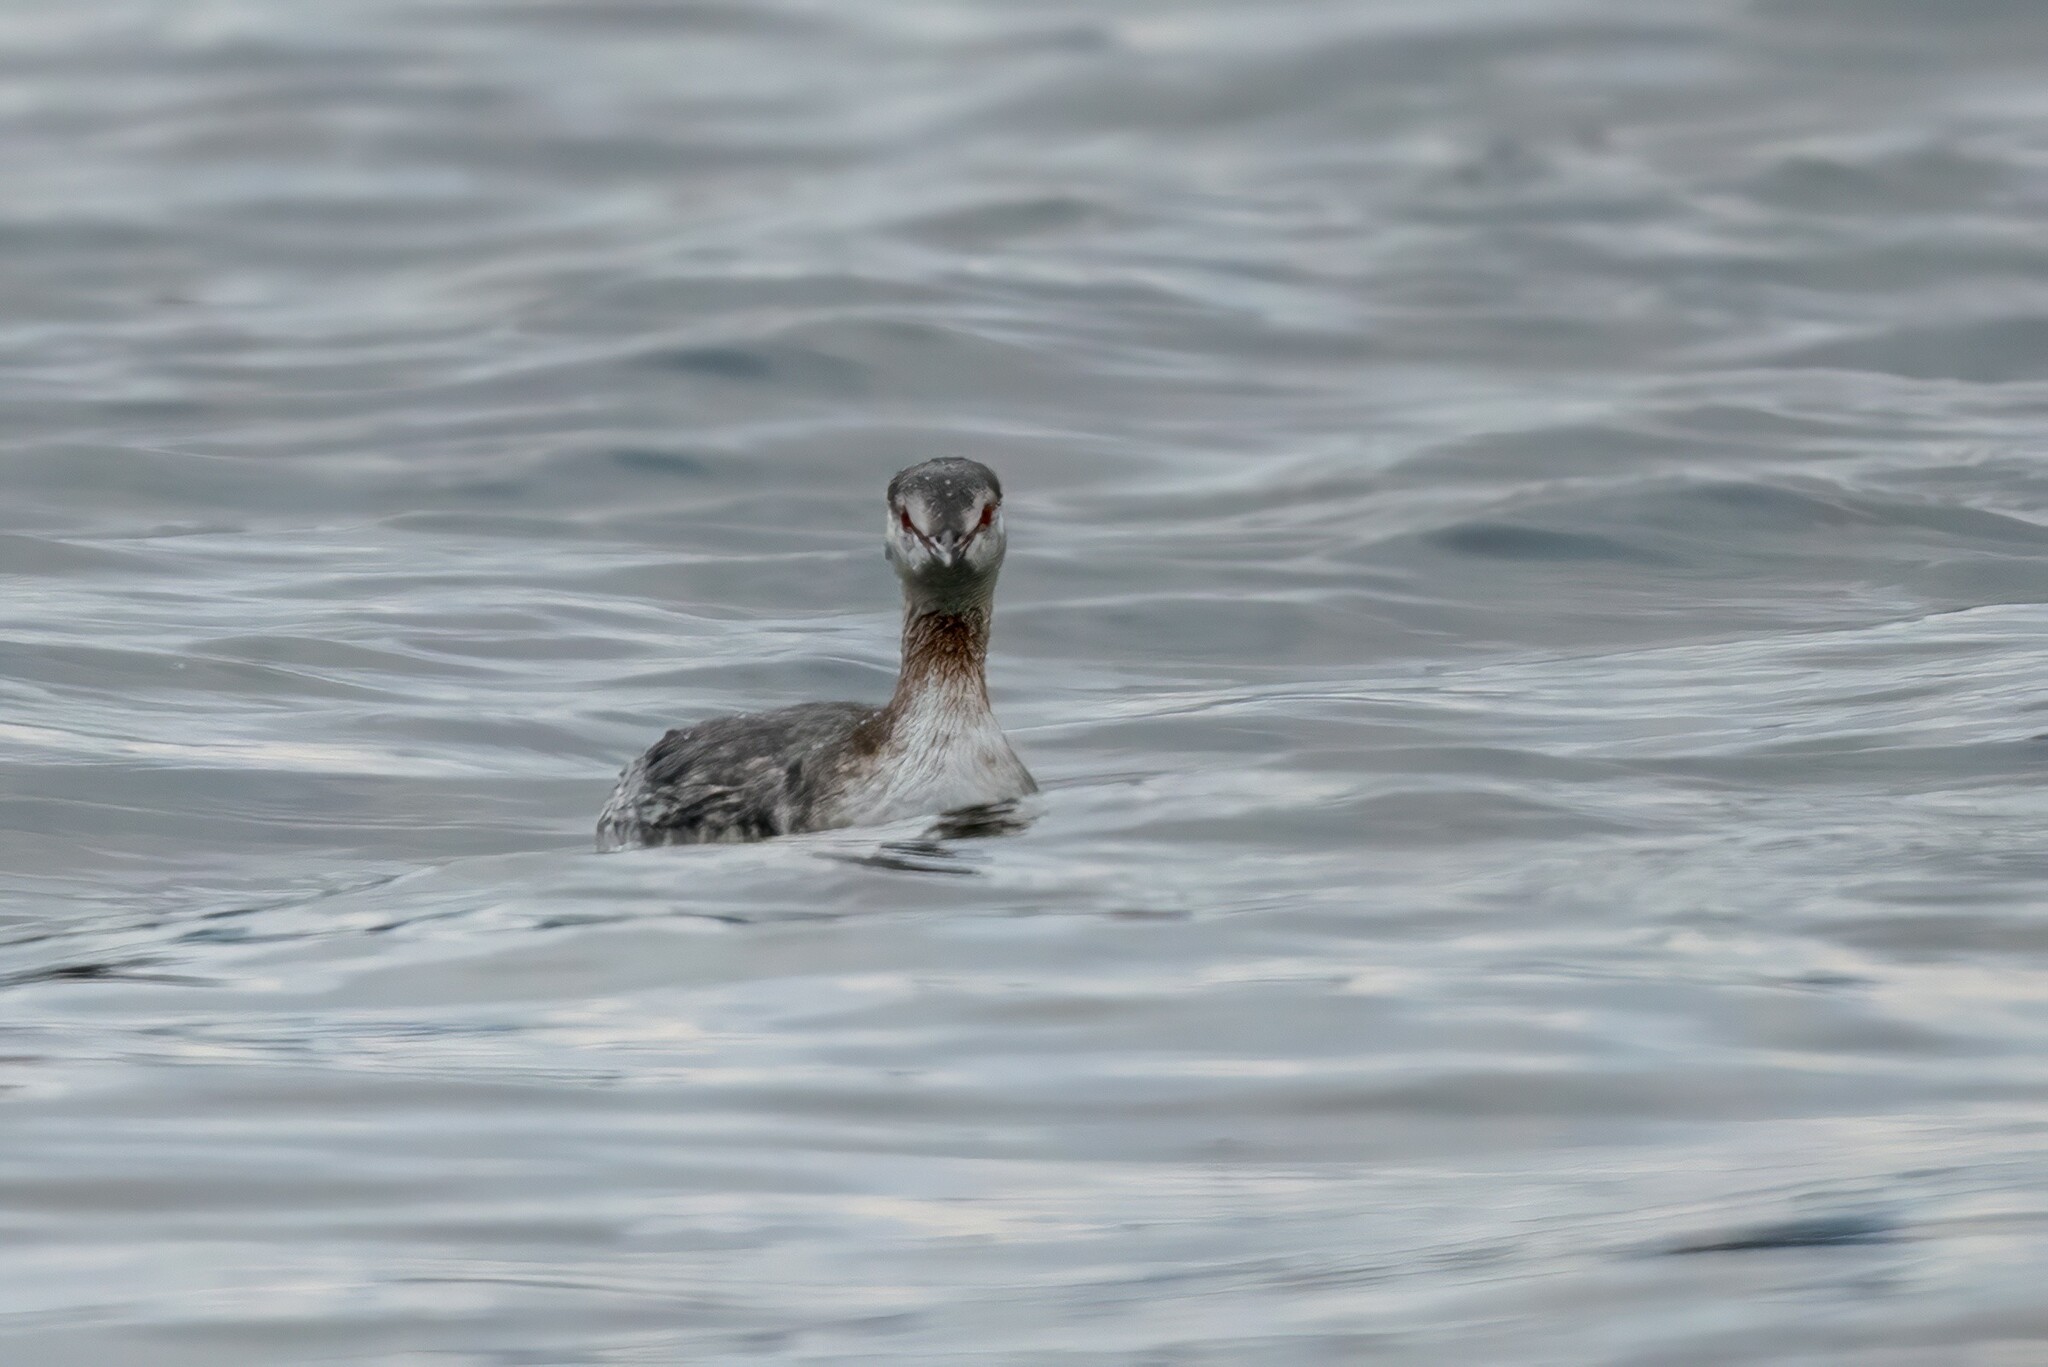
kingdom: Animalia
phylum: Chordata
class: Aves
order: Podicipediformes
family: Podicipedidae
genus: Podiceps
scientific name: Podiceps auritus
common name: Horned grebe
